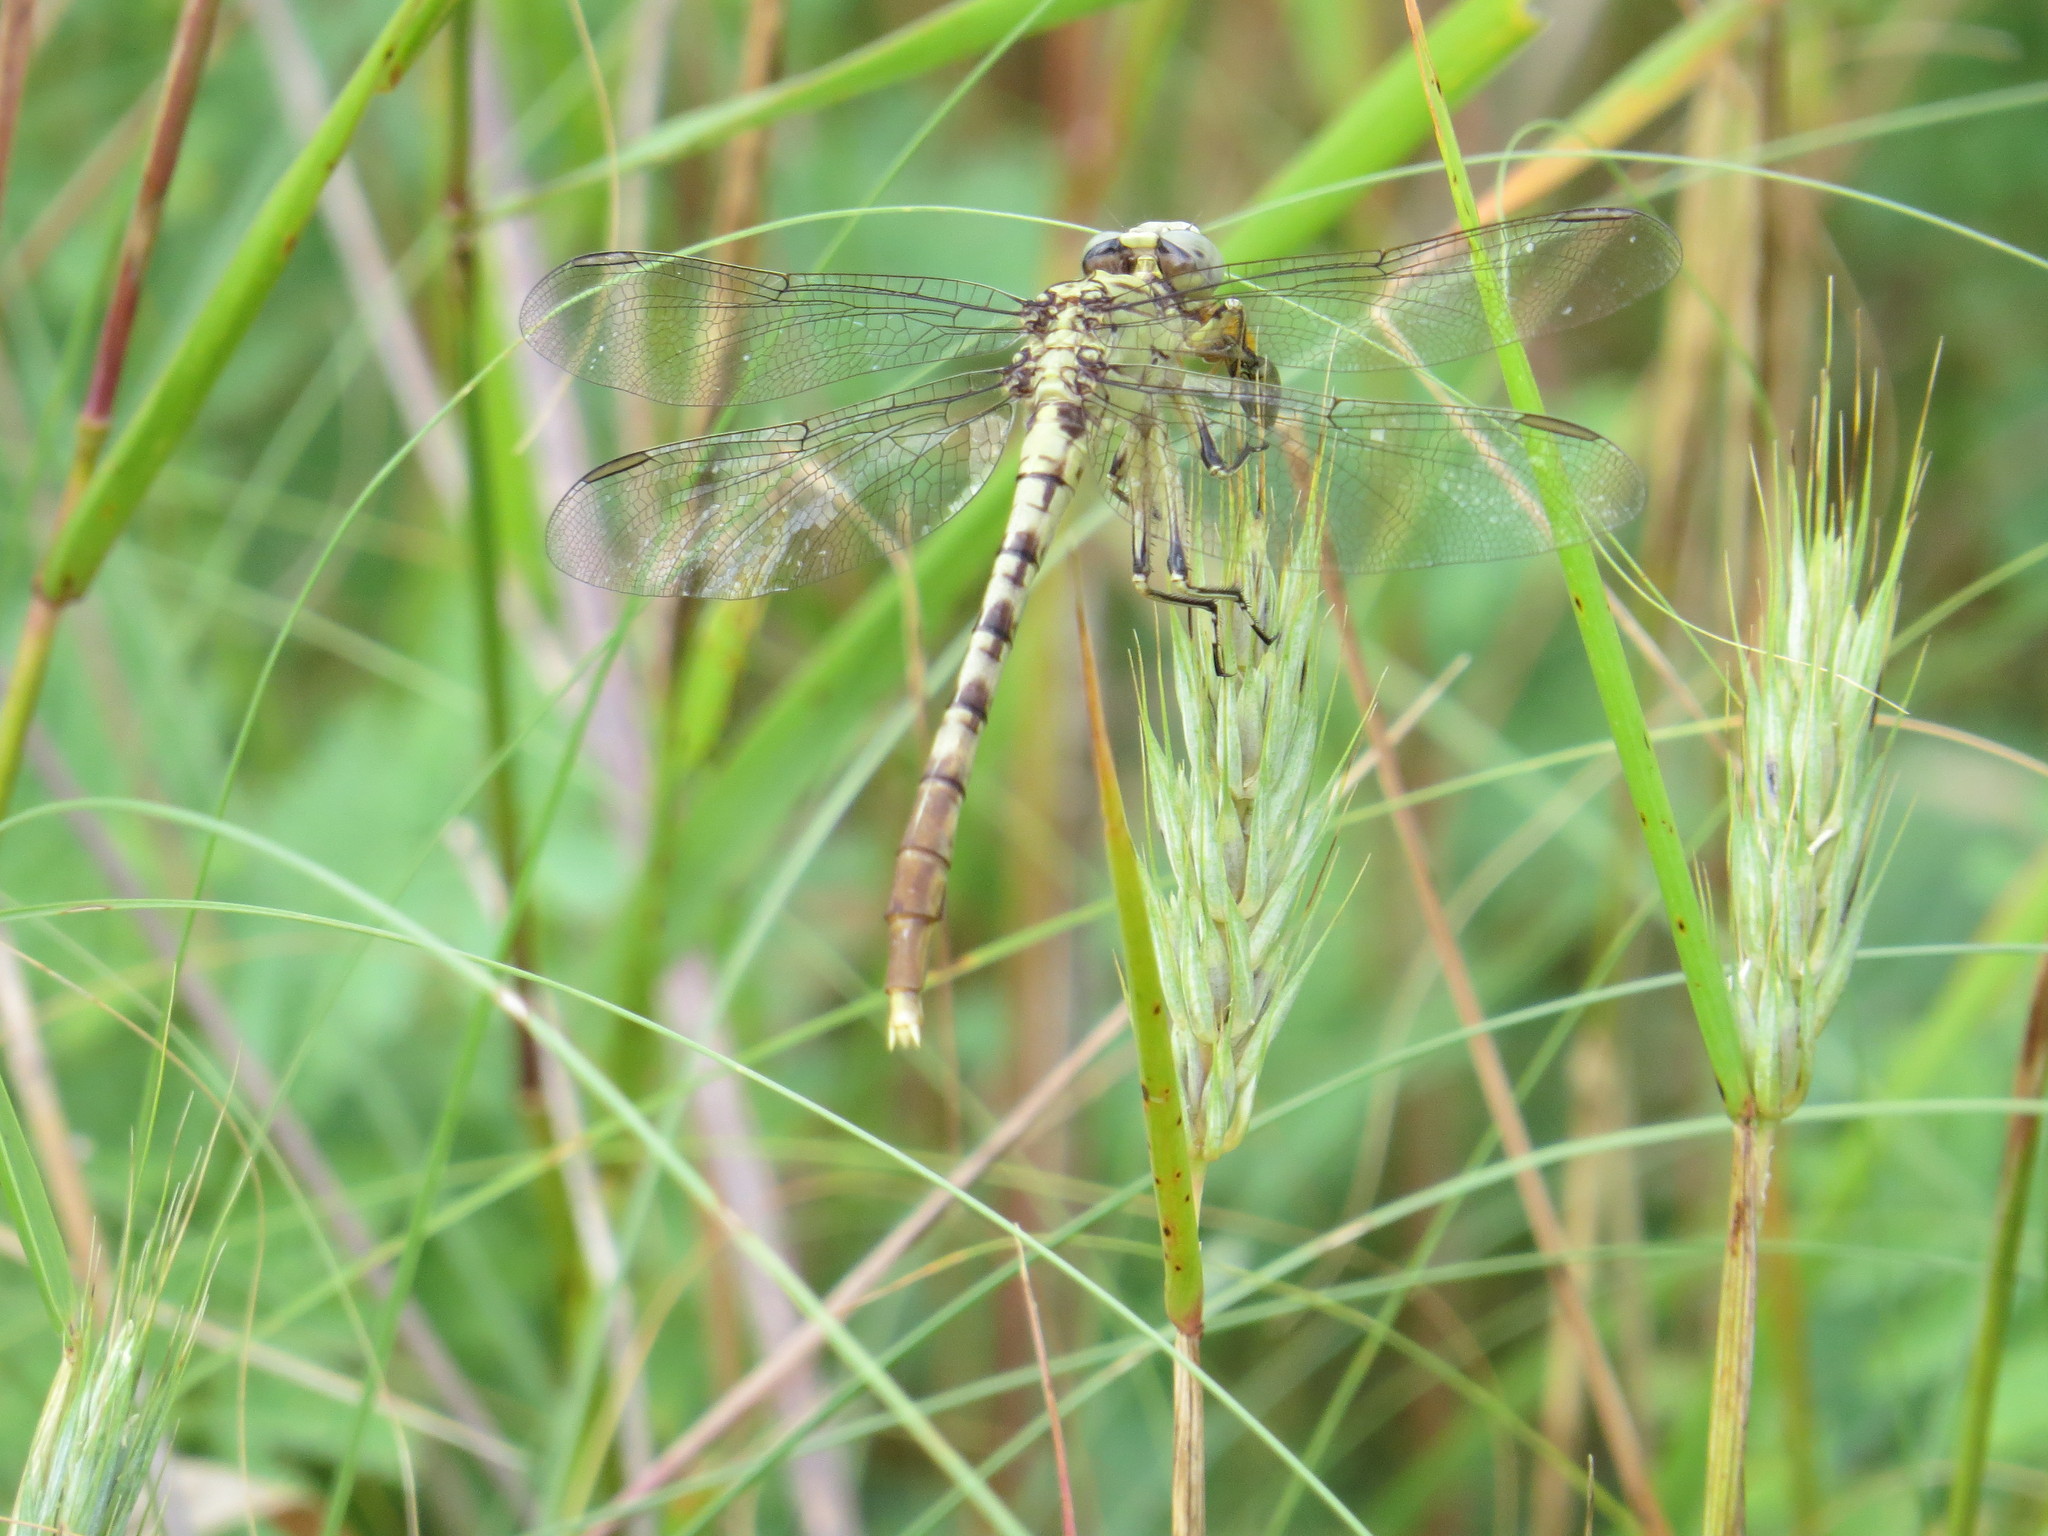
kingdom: Animalia
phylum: Arthropoda
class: Insecta
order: Odonata
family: Gomphidae
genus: Arigomphus
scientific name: Arigomphus submedianus
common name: Jade clubtail
